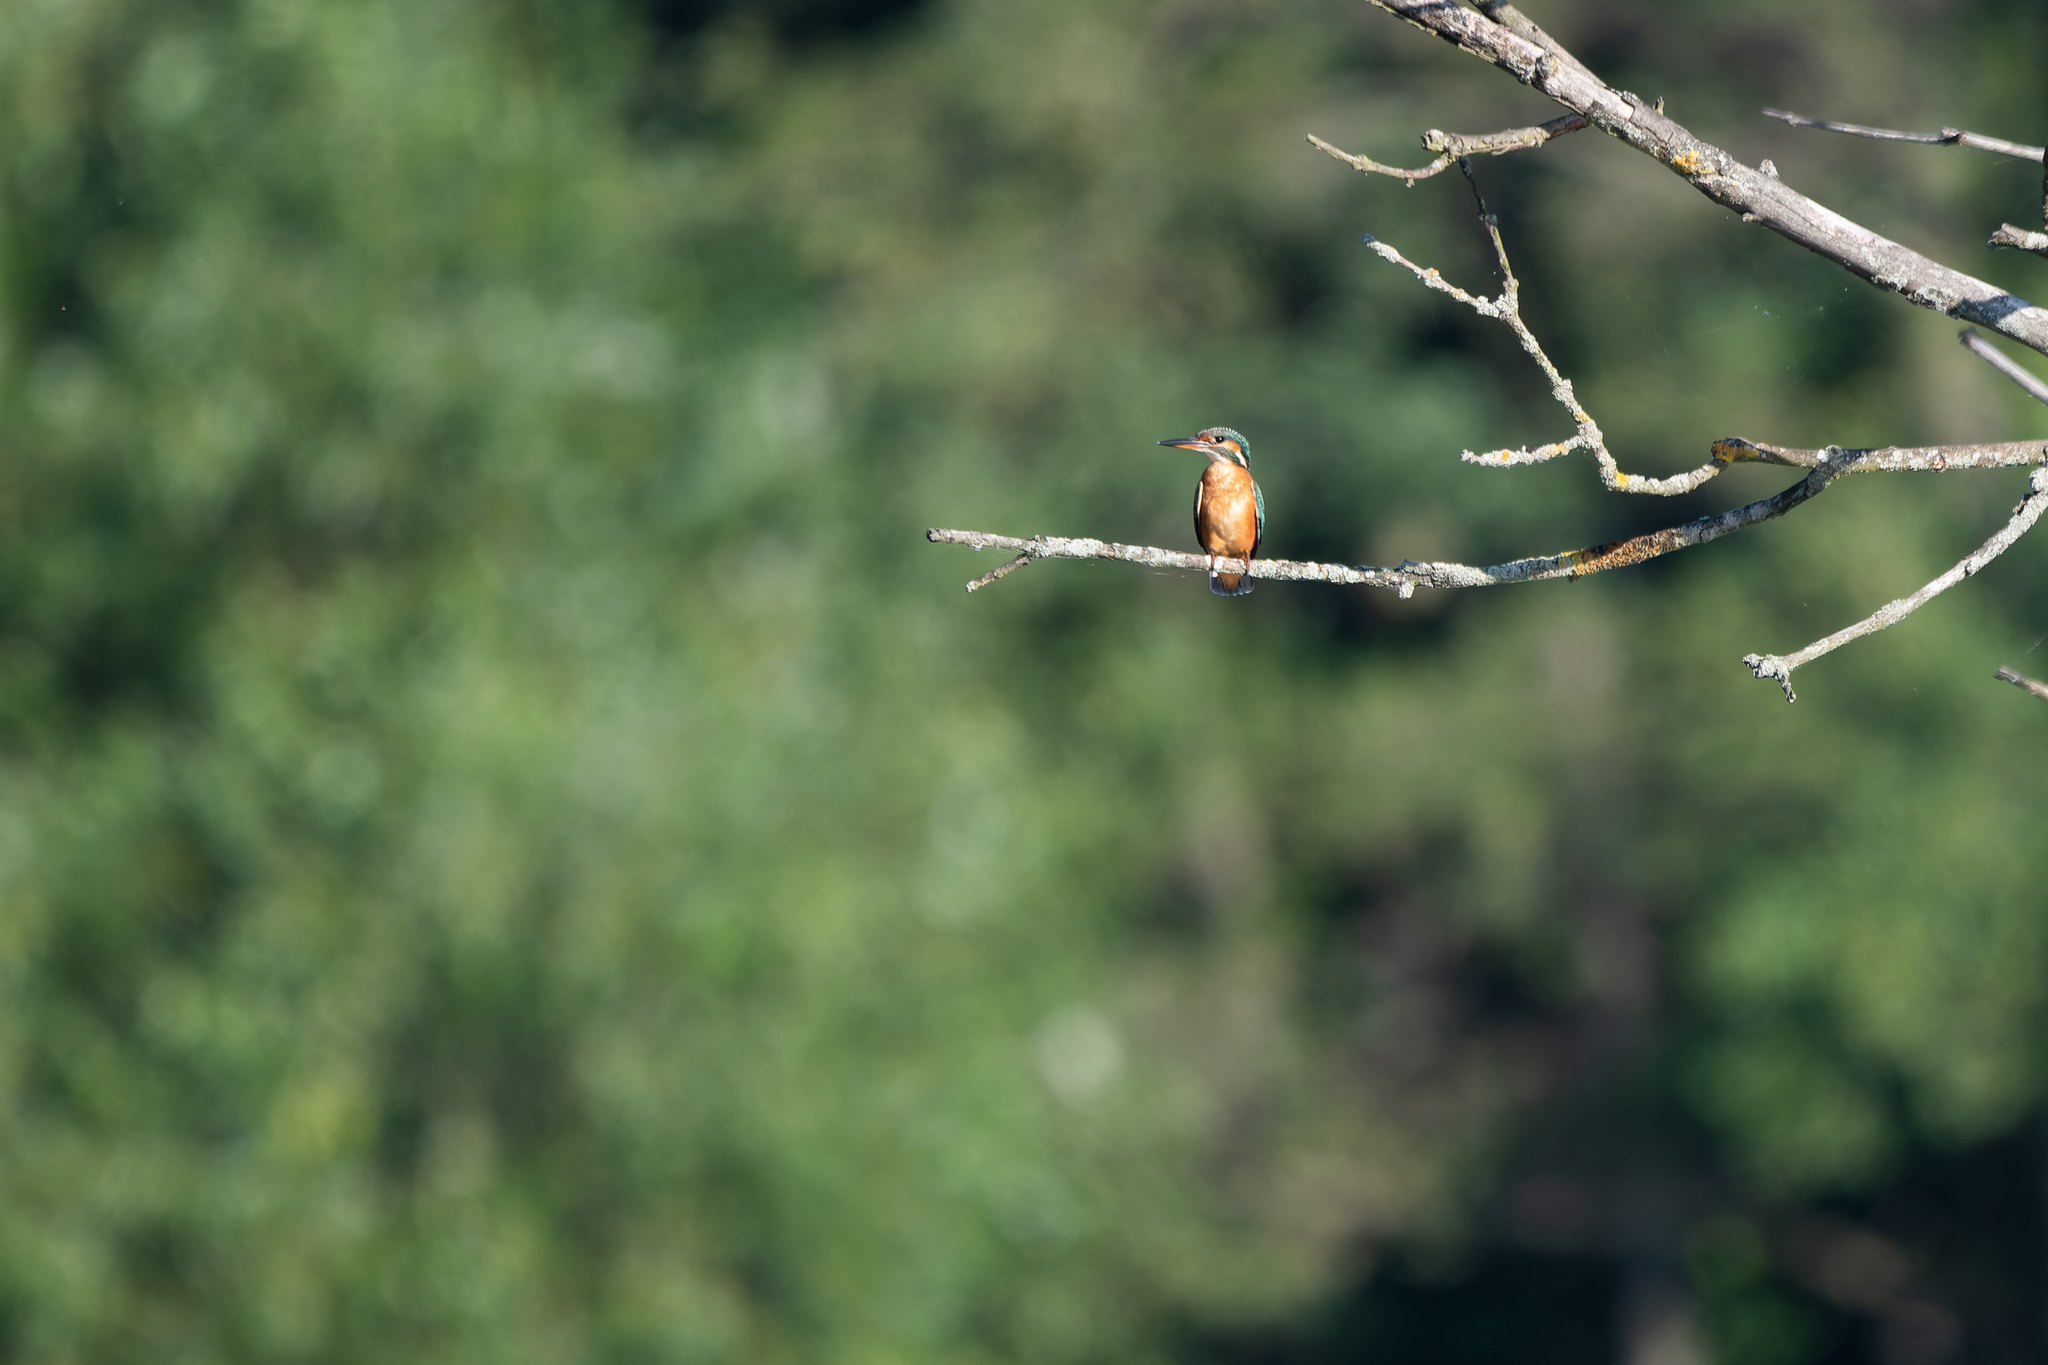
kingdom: Animalia
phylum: Chordata
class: Aves
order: Coraciiformes
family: Alcedinidae
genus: Alcedo
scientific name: Alcedo atthis
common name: Common kingfisher
